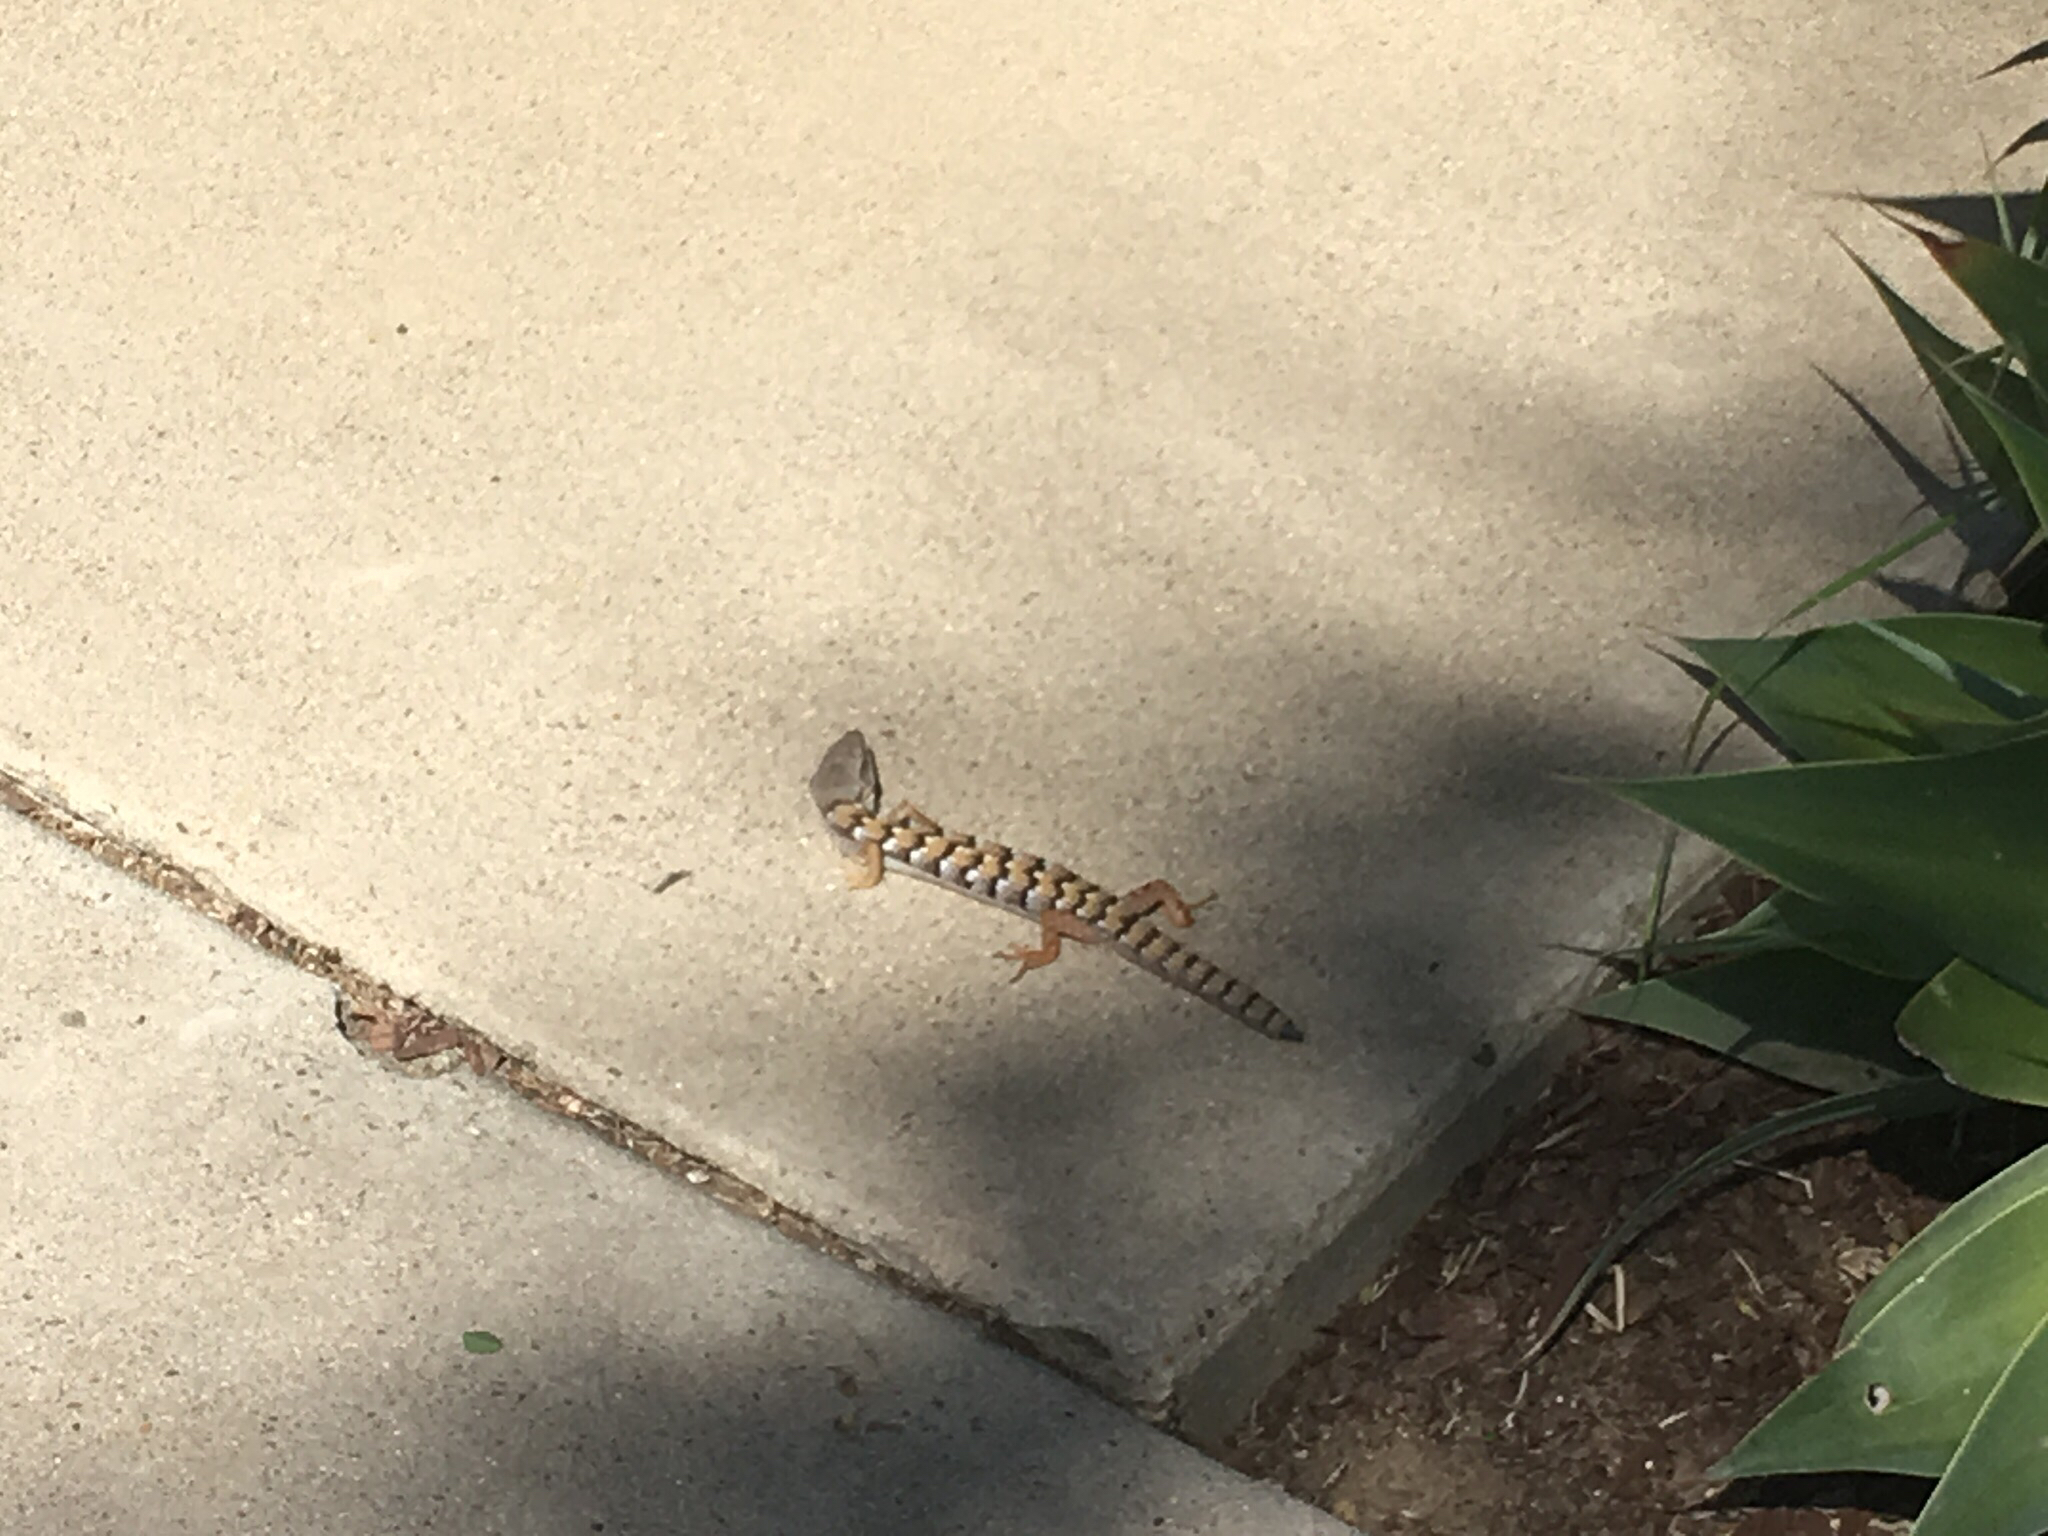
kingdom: Animalia
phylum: Chordata
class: Squamata
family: Anguidae
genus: Elgaria
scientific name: Elgaria multicarinata
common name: Southern alligator lizard
